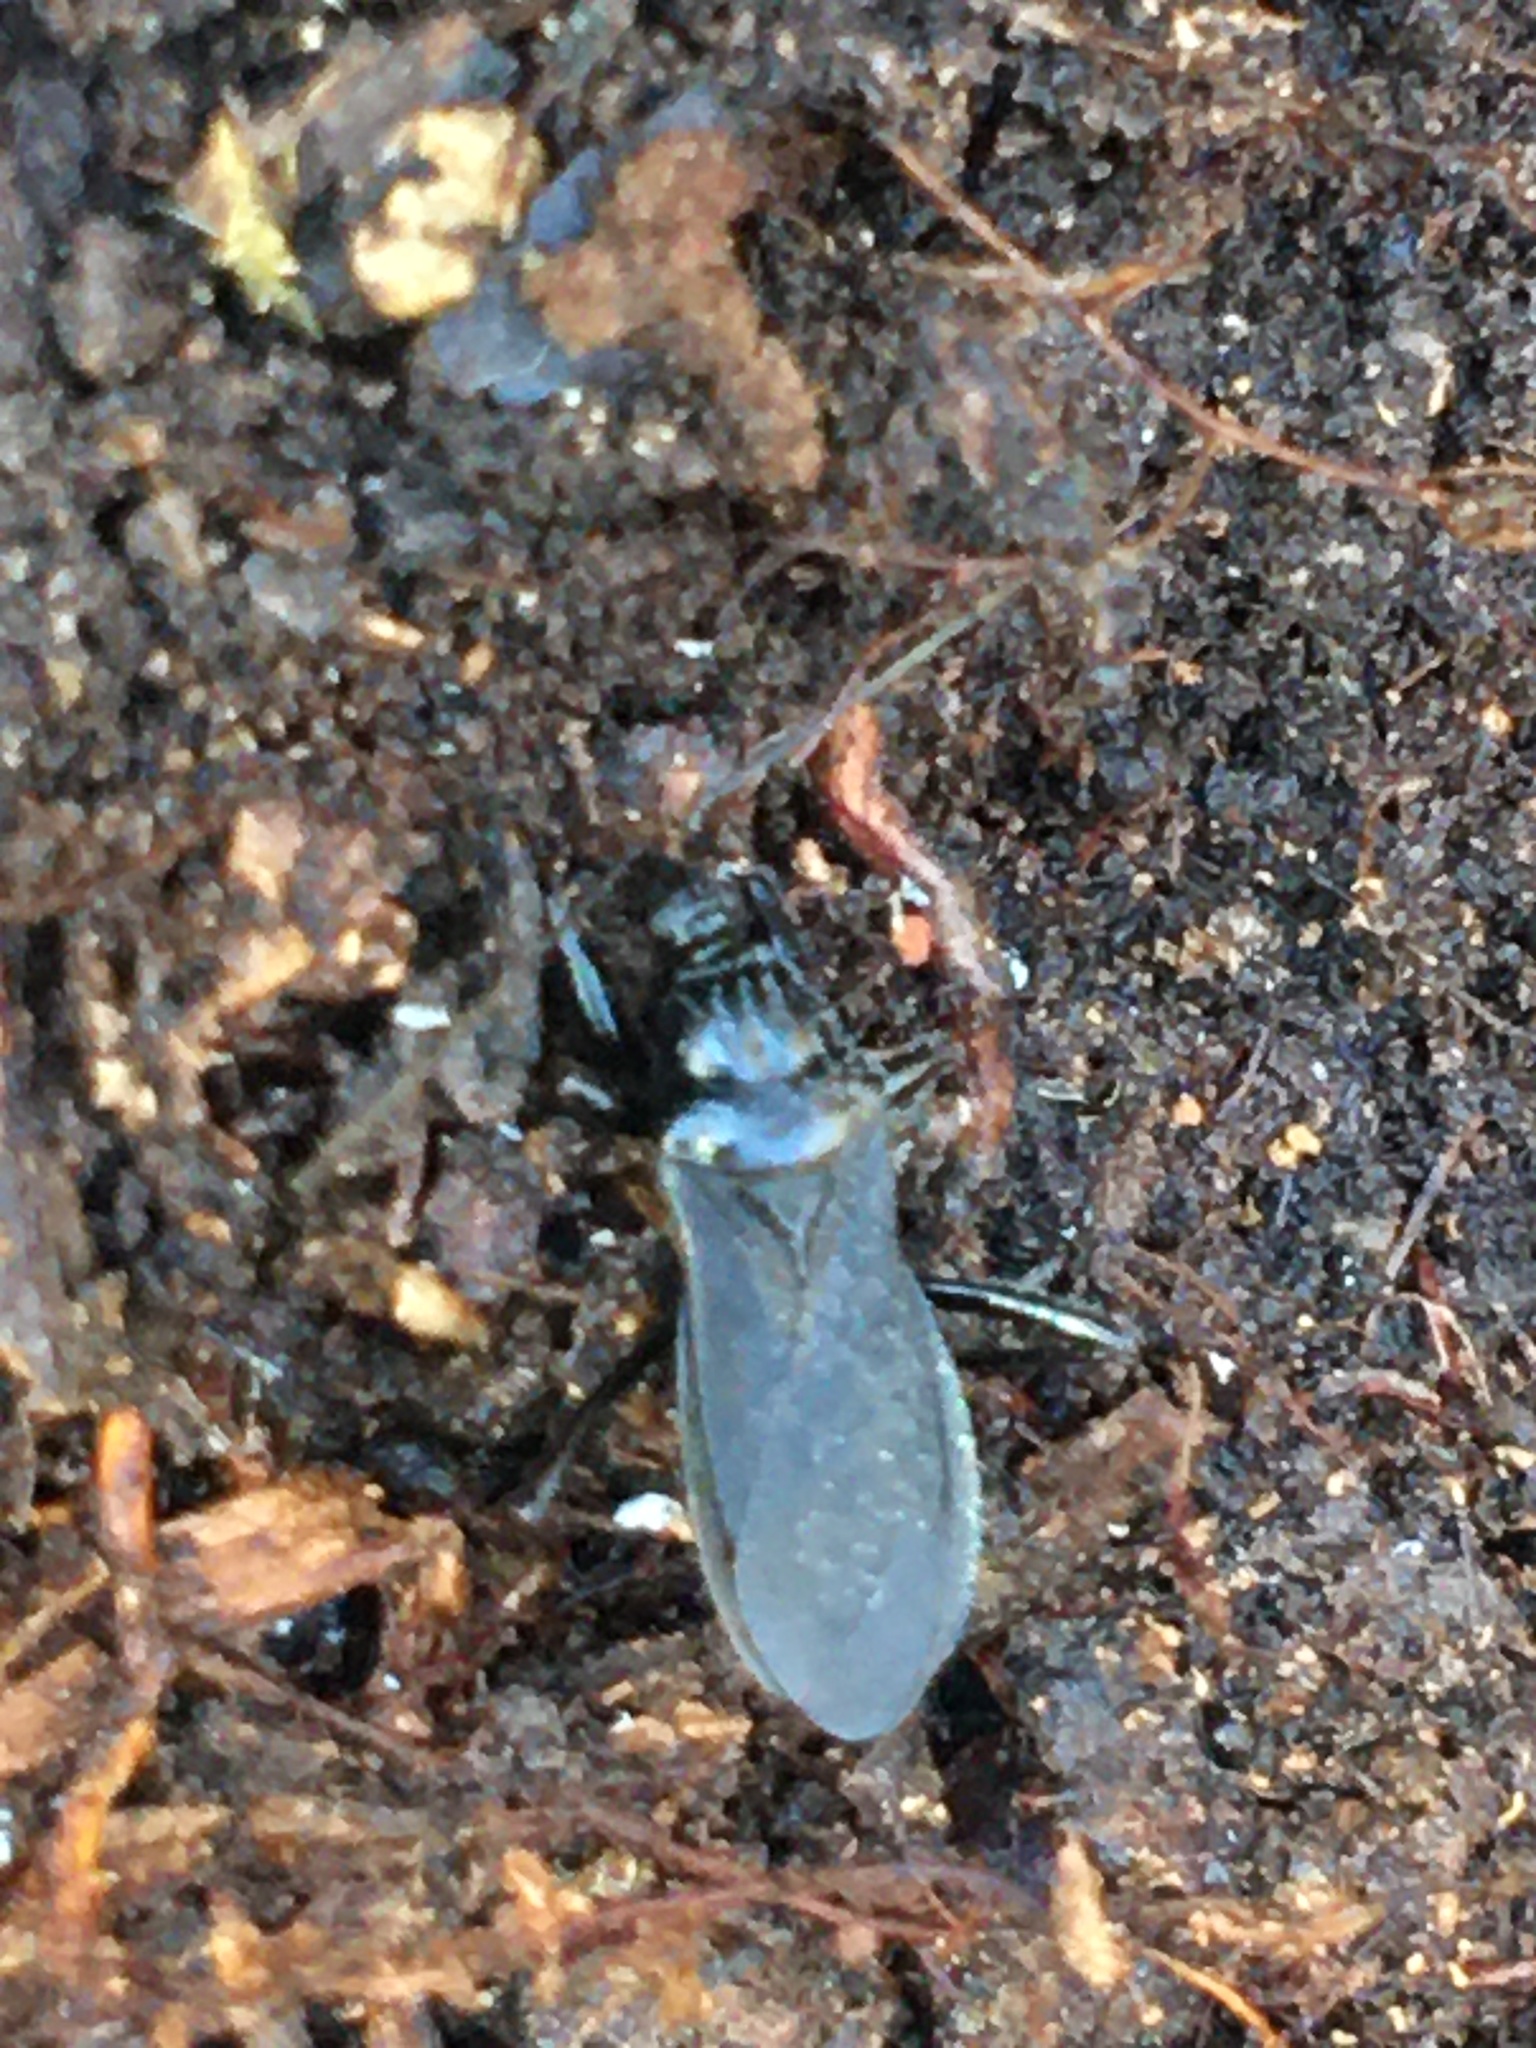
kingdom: Animalia
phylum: Arthropoda
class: Insecta
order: Hemiptera
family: Reduviidae
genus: Melanolestes
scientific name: Melanolestes picipes
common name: Assassin bug
